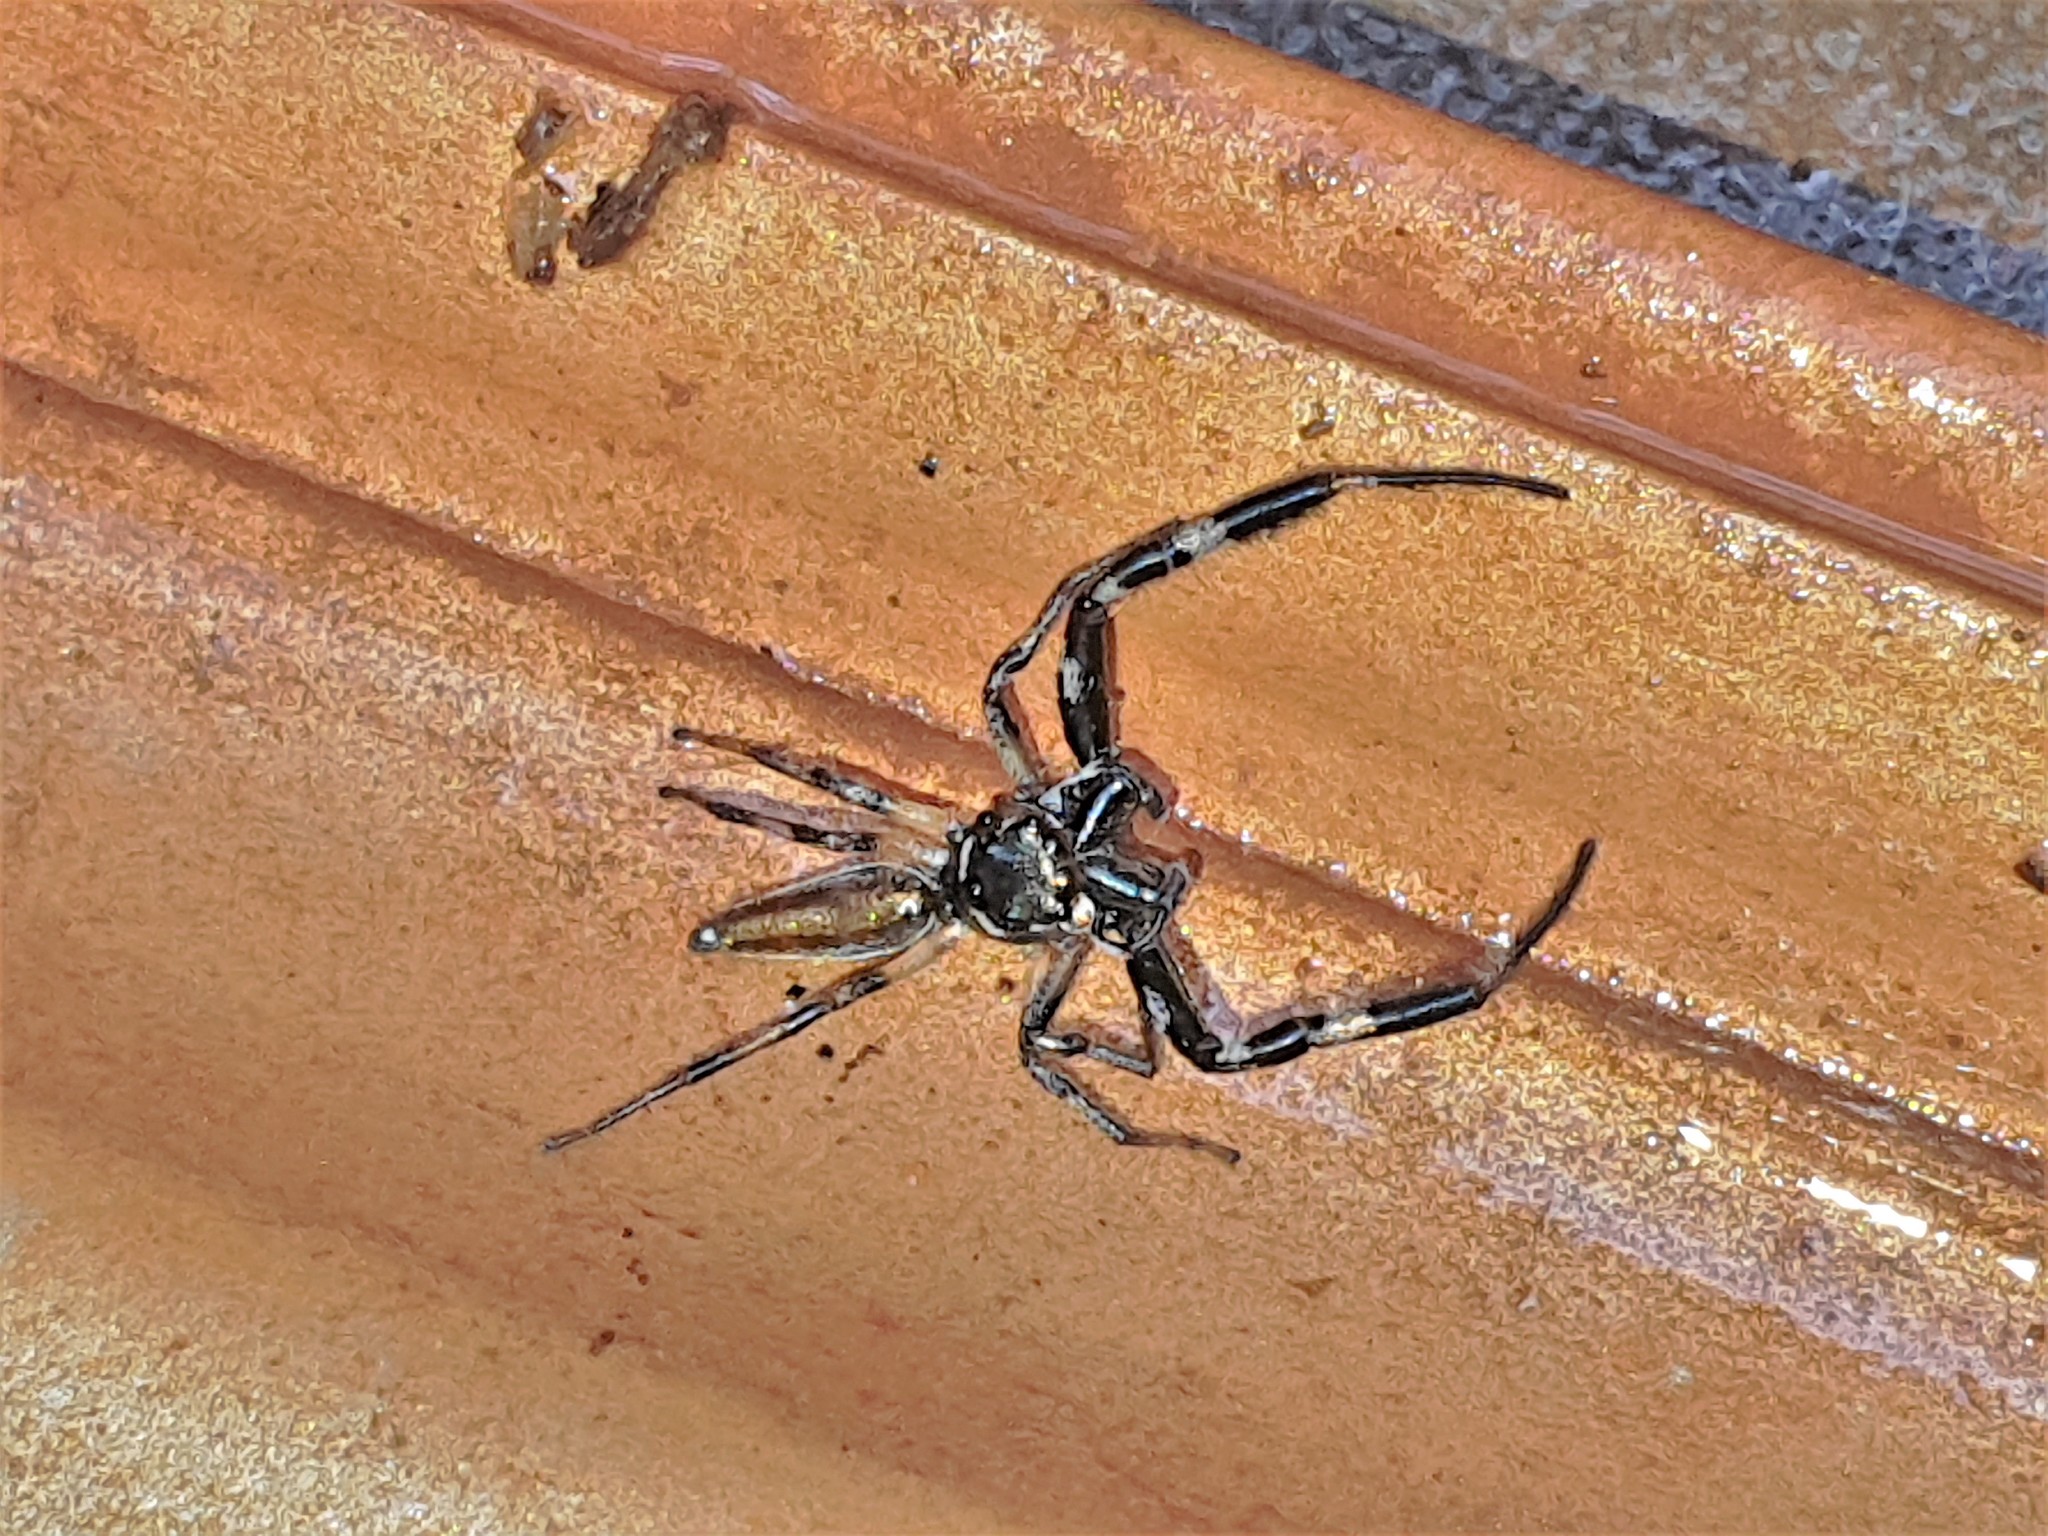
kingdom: Animalia
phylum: Arthropoda
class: Arachnida
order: Araneae
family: Salticidae
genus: Lurio
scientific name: Lurio solennis
